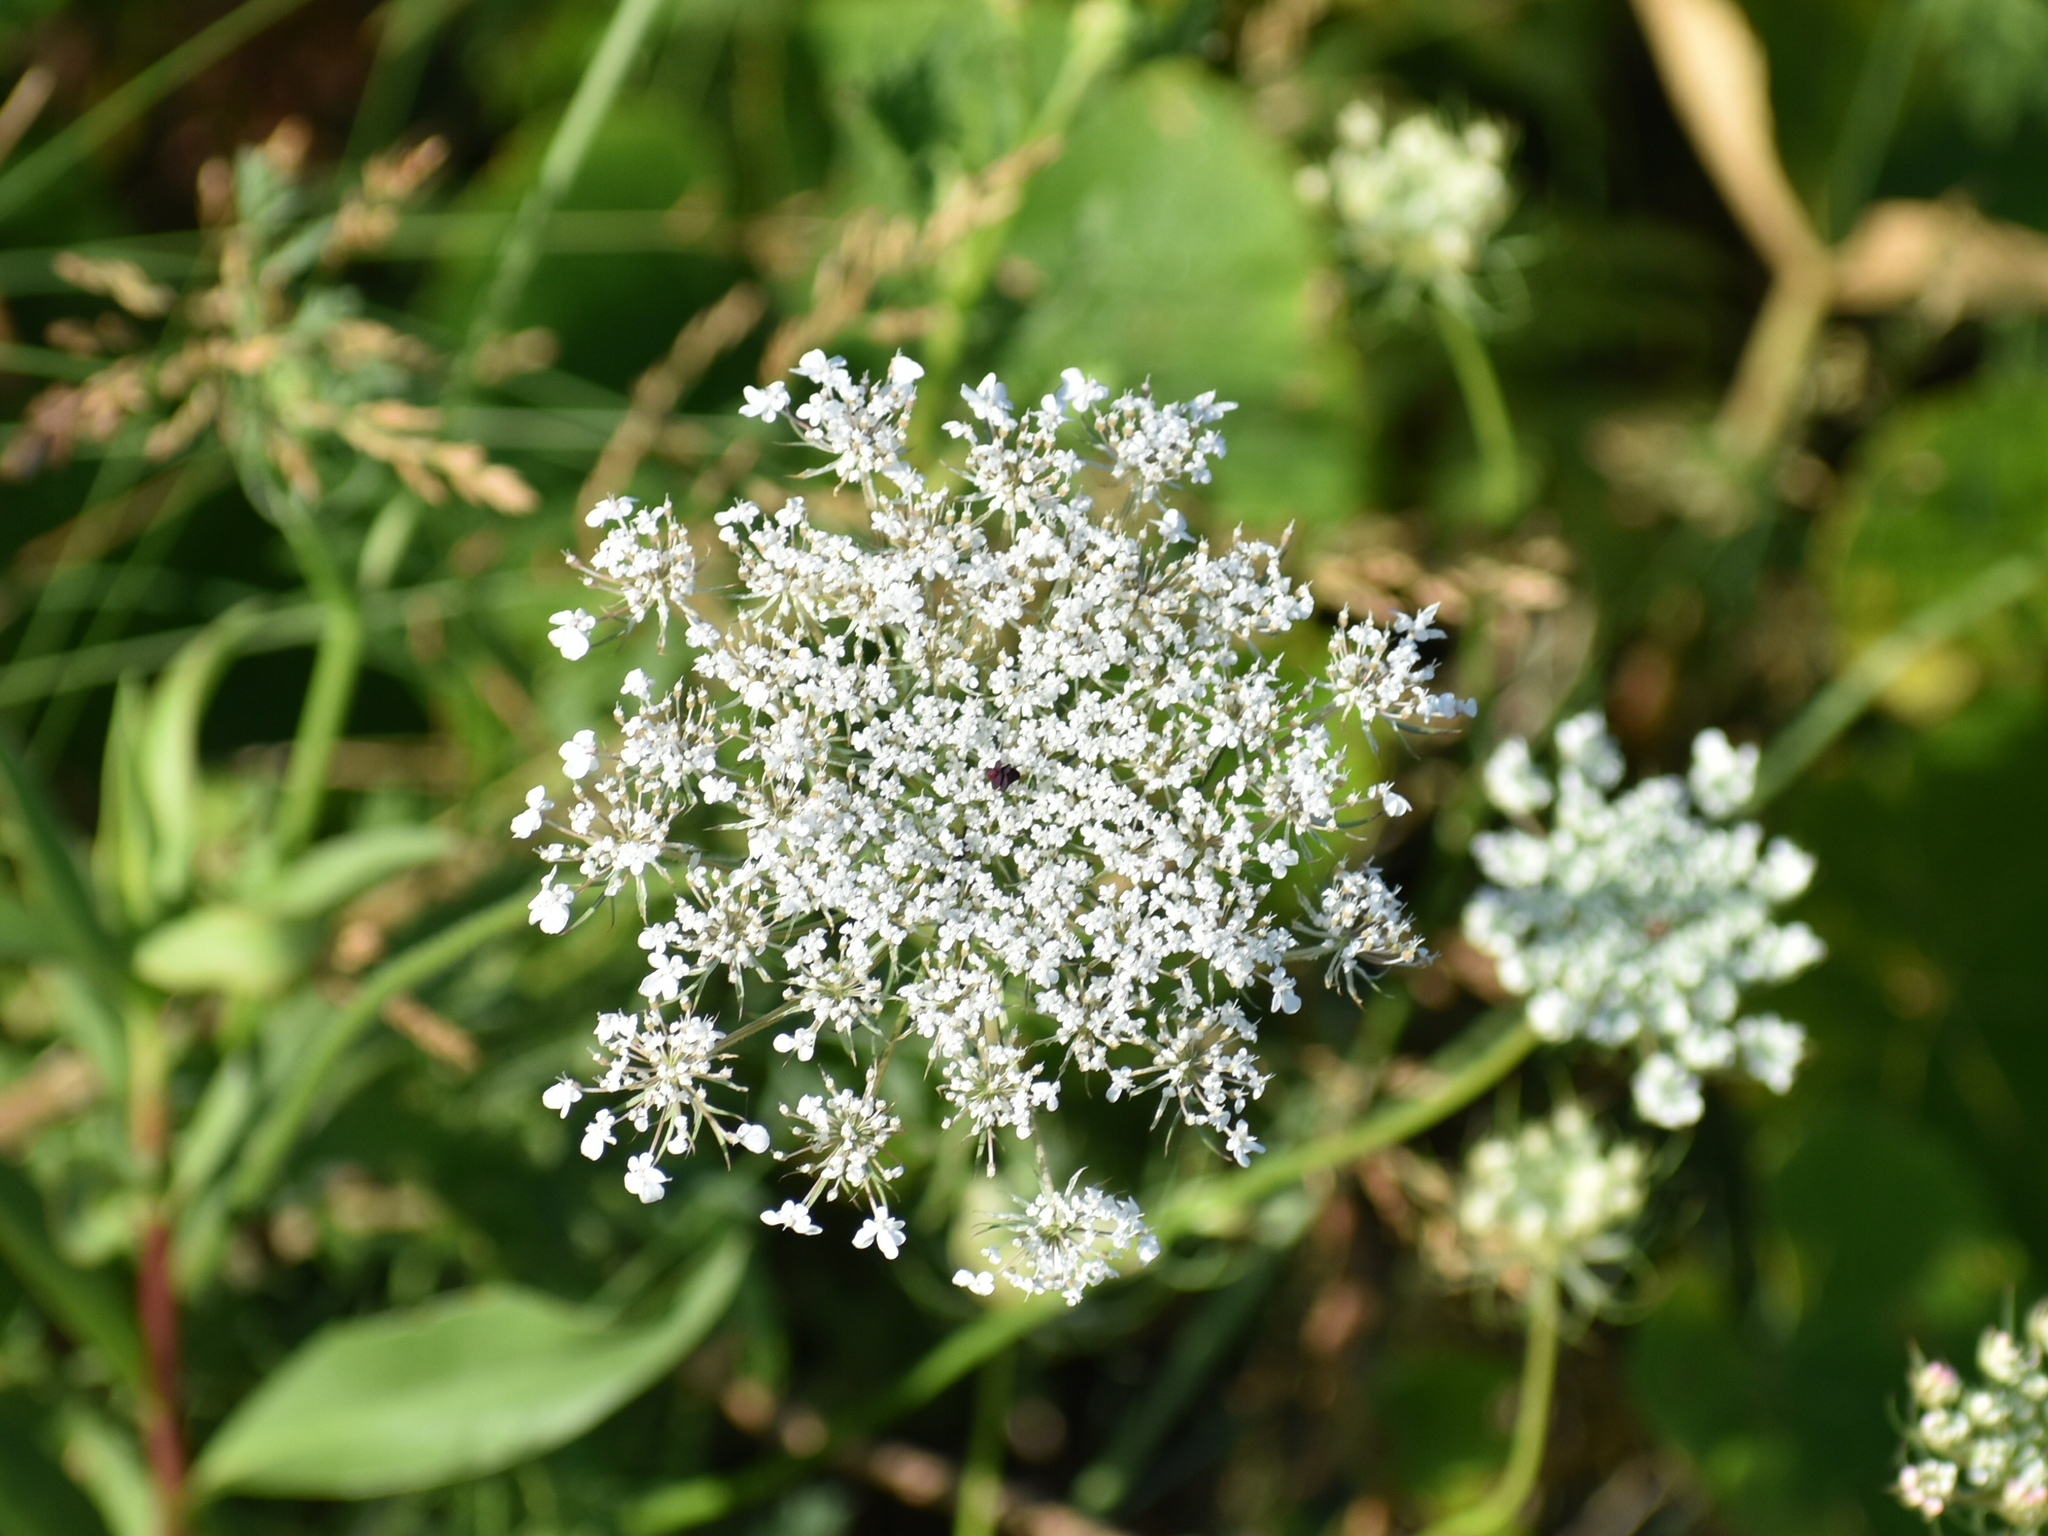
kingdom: Plantae
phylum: Tracheophyta
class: Magnoliopsida
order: Apiales
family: Apiaceae
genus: Daucus
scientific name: Daucus carota
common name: Wild carrot
